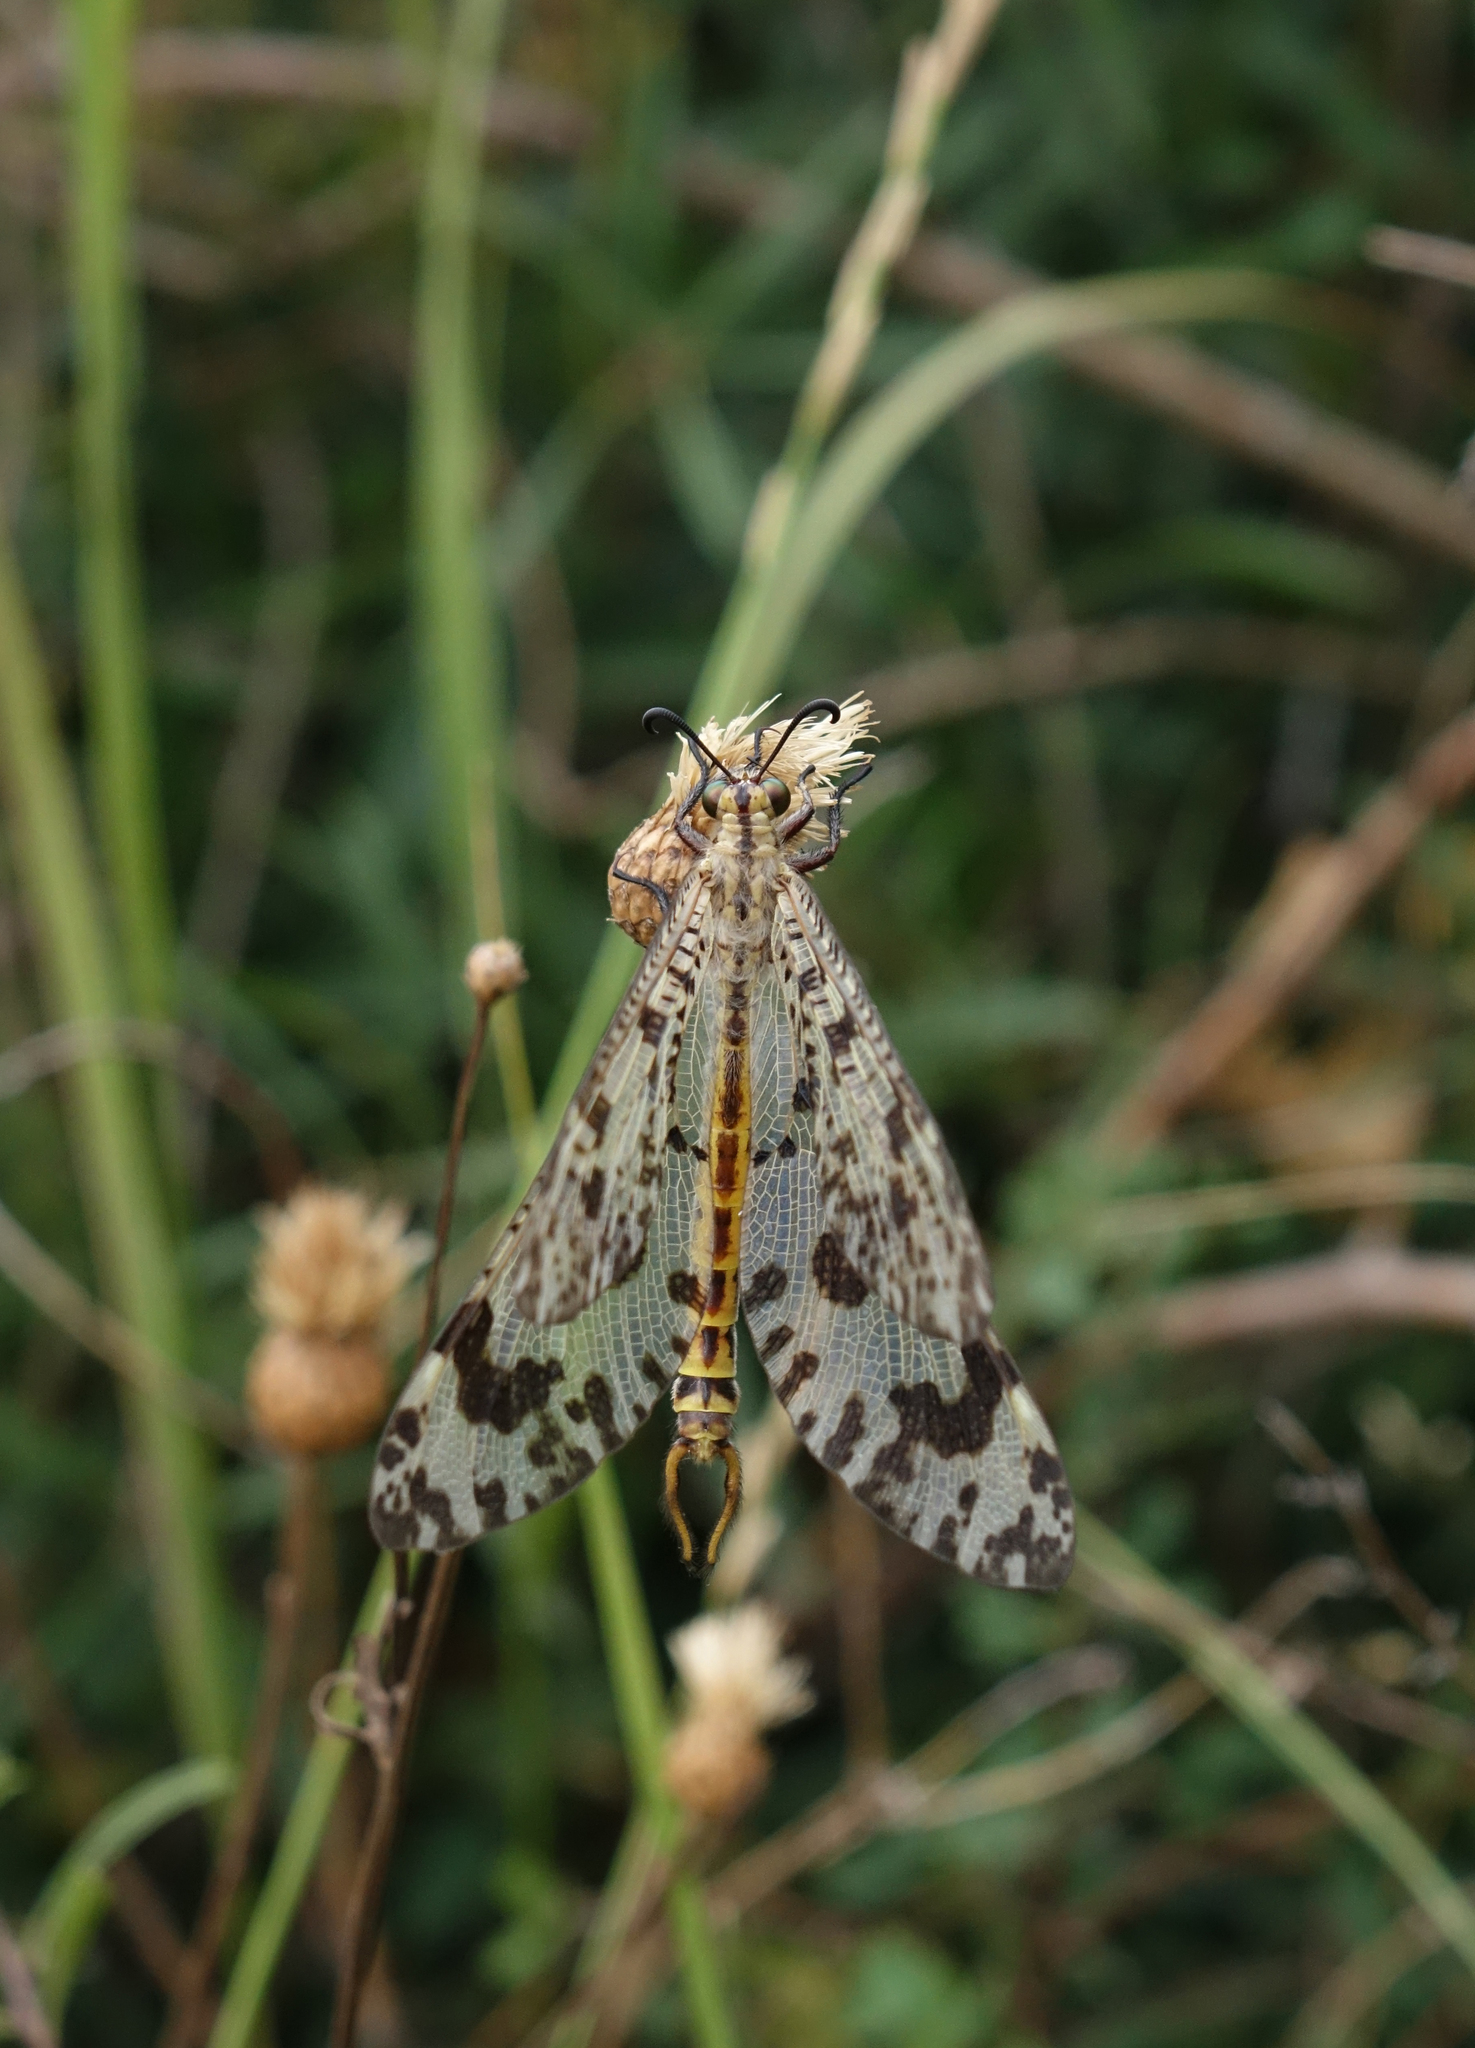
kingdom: Animalia
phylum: Arthropoda
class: Insecta
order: Neuroptera
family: Myrmeleontidae
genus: Palpares
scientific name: Palpares libelluloides
